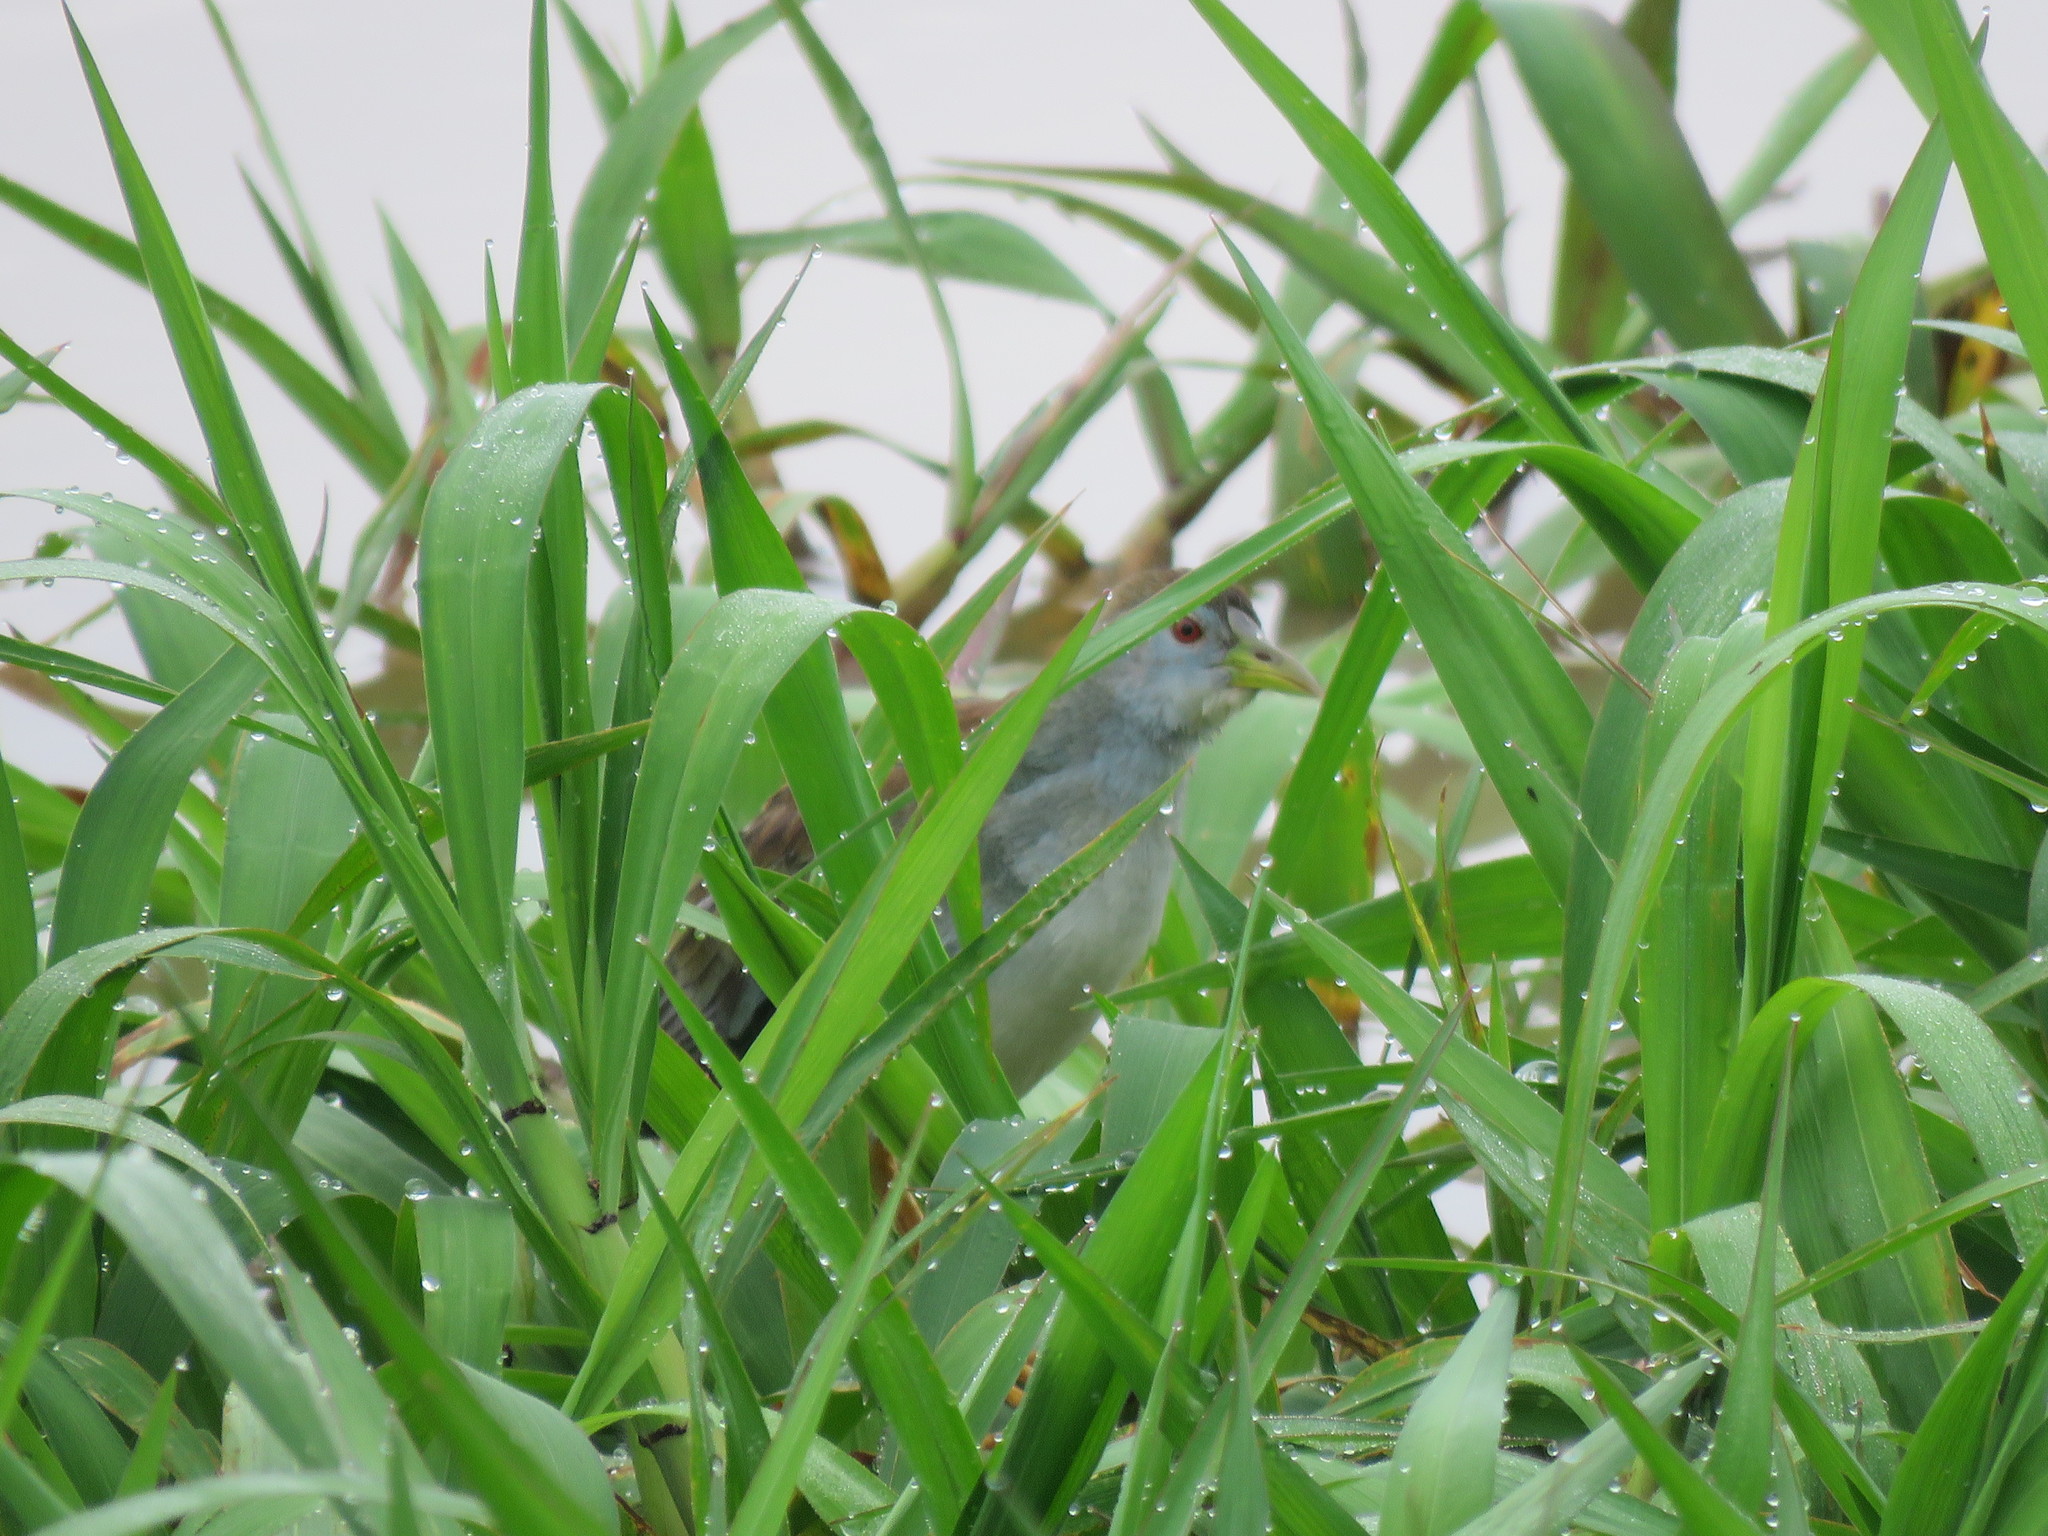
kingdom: Animalia
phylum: Chordata
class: Aves
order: Gruiformes
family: Rallidae
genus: Porphyrio
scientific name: Porphyrio flavirostris
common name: Azure gallinule
